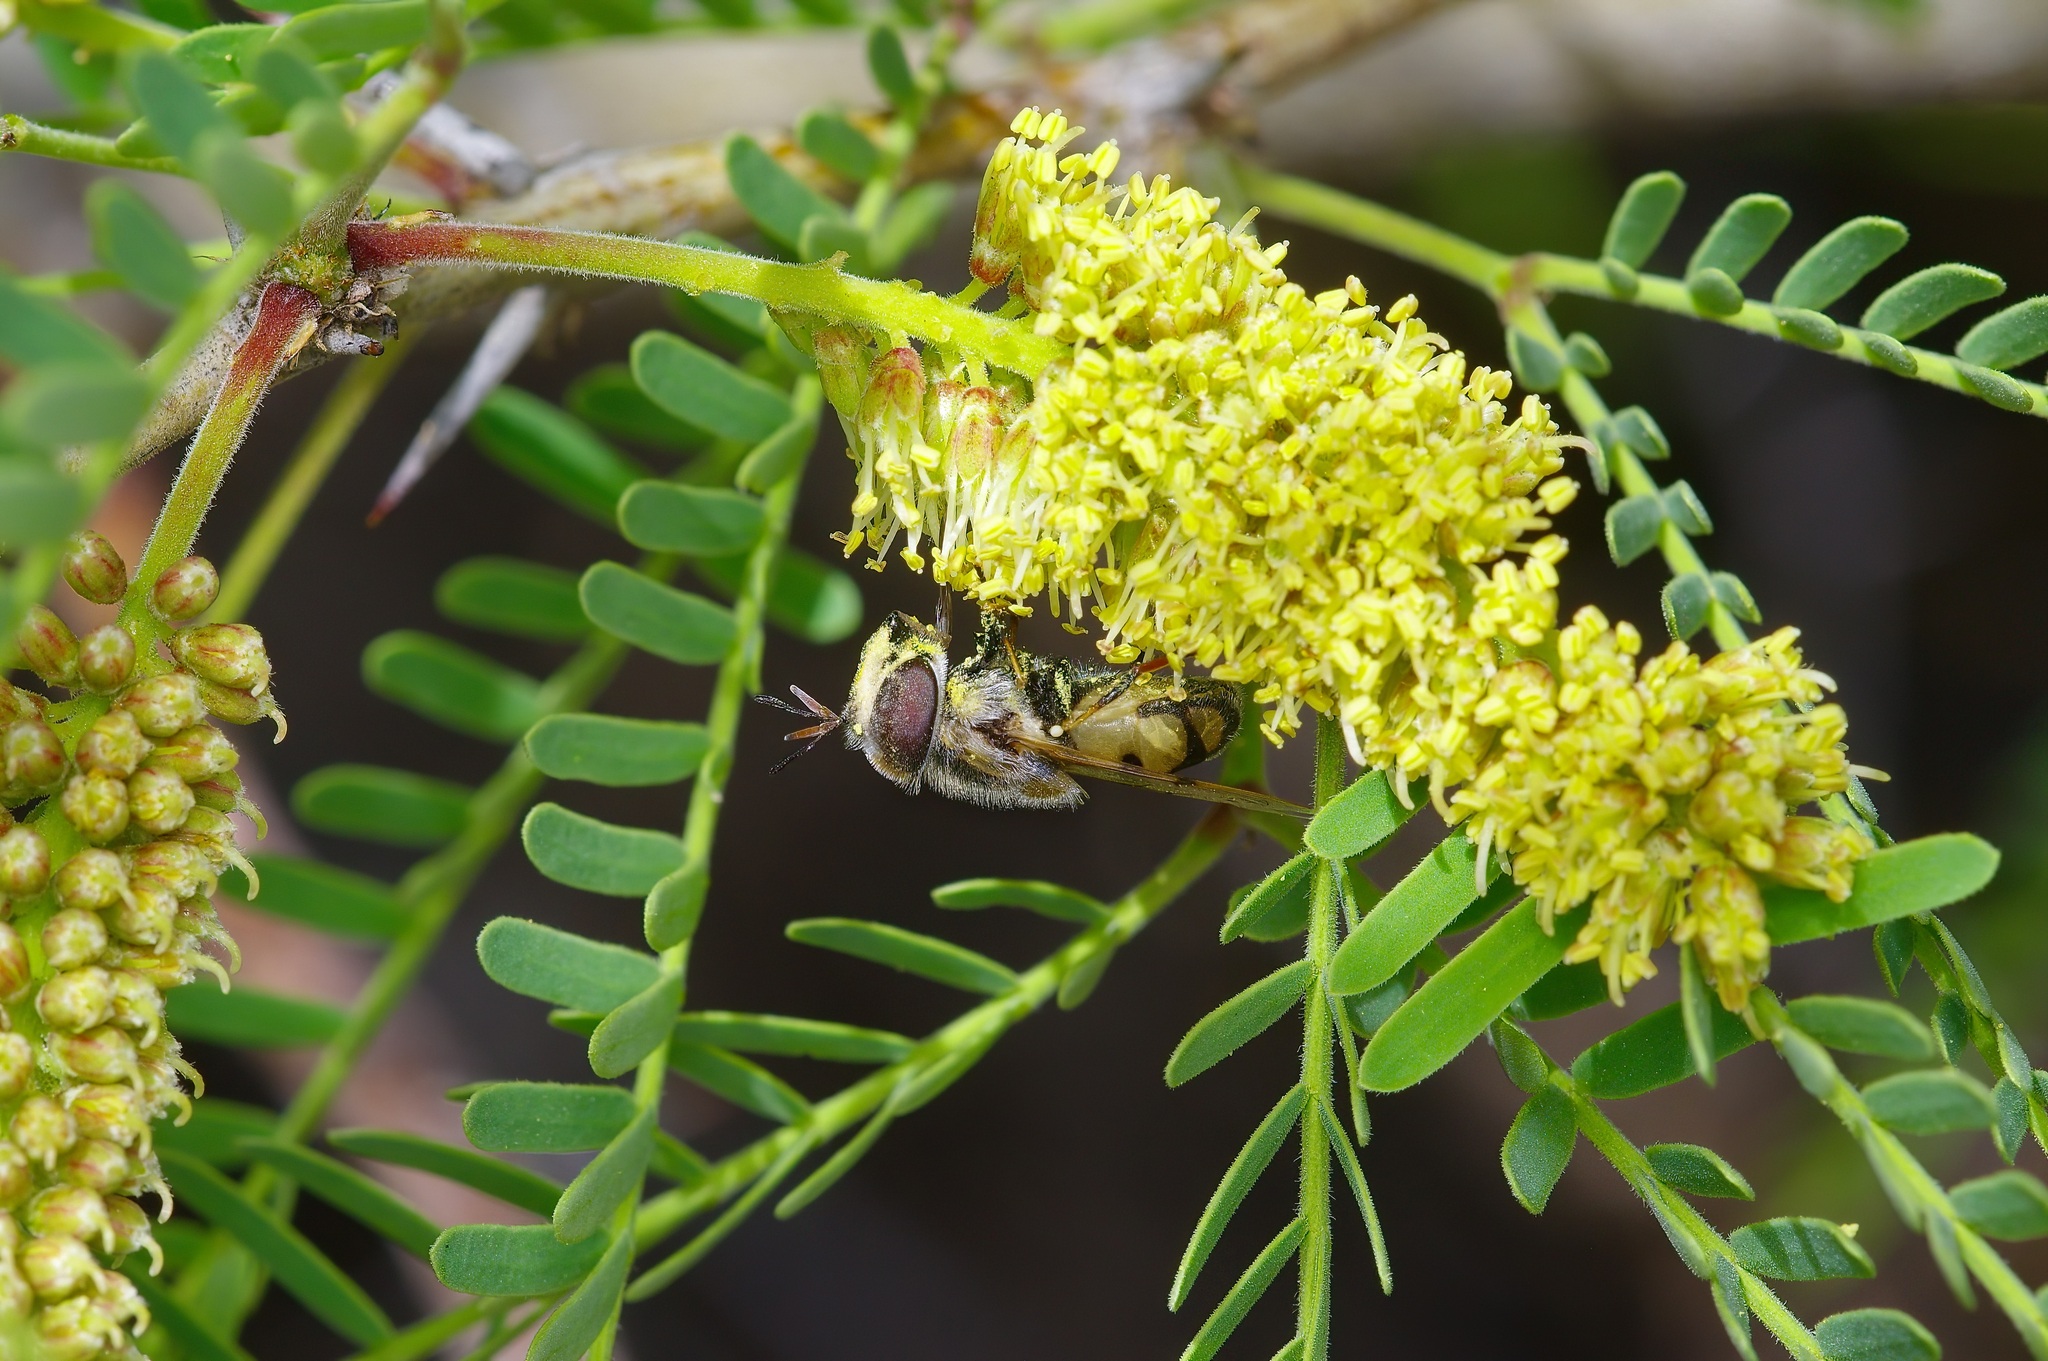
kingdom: Animalia
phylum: Arthropoda
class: Insecta
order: Diptera
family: Syrphidae
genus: Copestylum
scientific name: Copestylum caudatum
